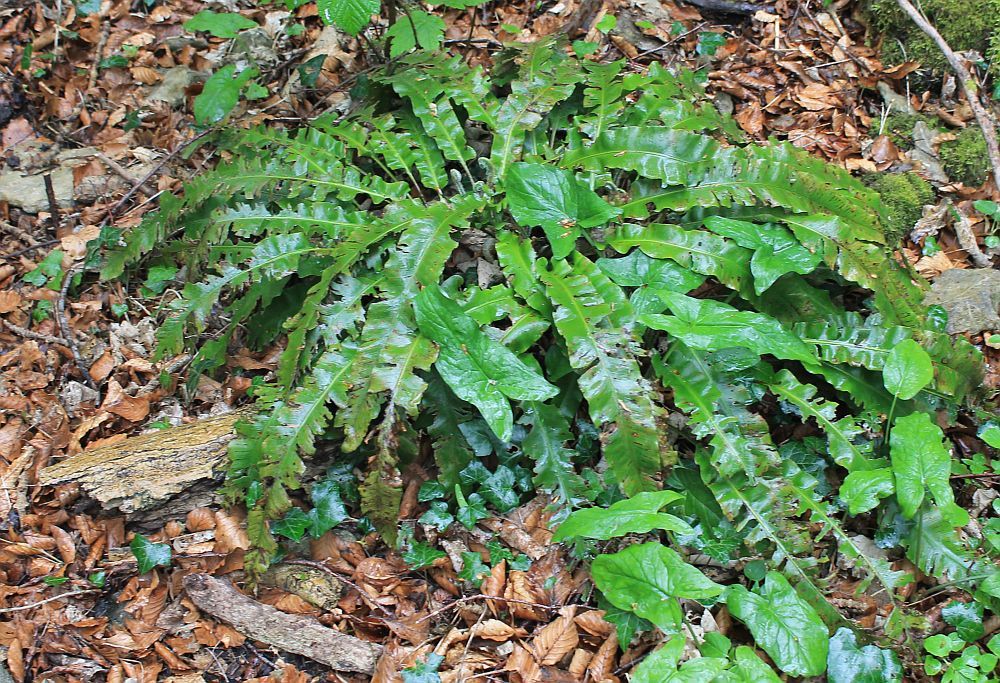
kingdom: Plantae
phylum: Tracheophyta
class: Polypodiopsida
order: Polypodiales
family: Aspleniaceae
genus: Asplenium
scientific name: Asplenium scolopendrium
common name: Hart's-tongue fern
